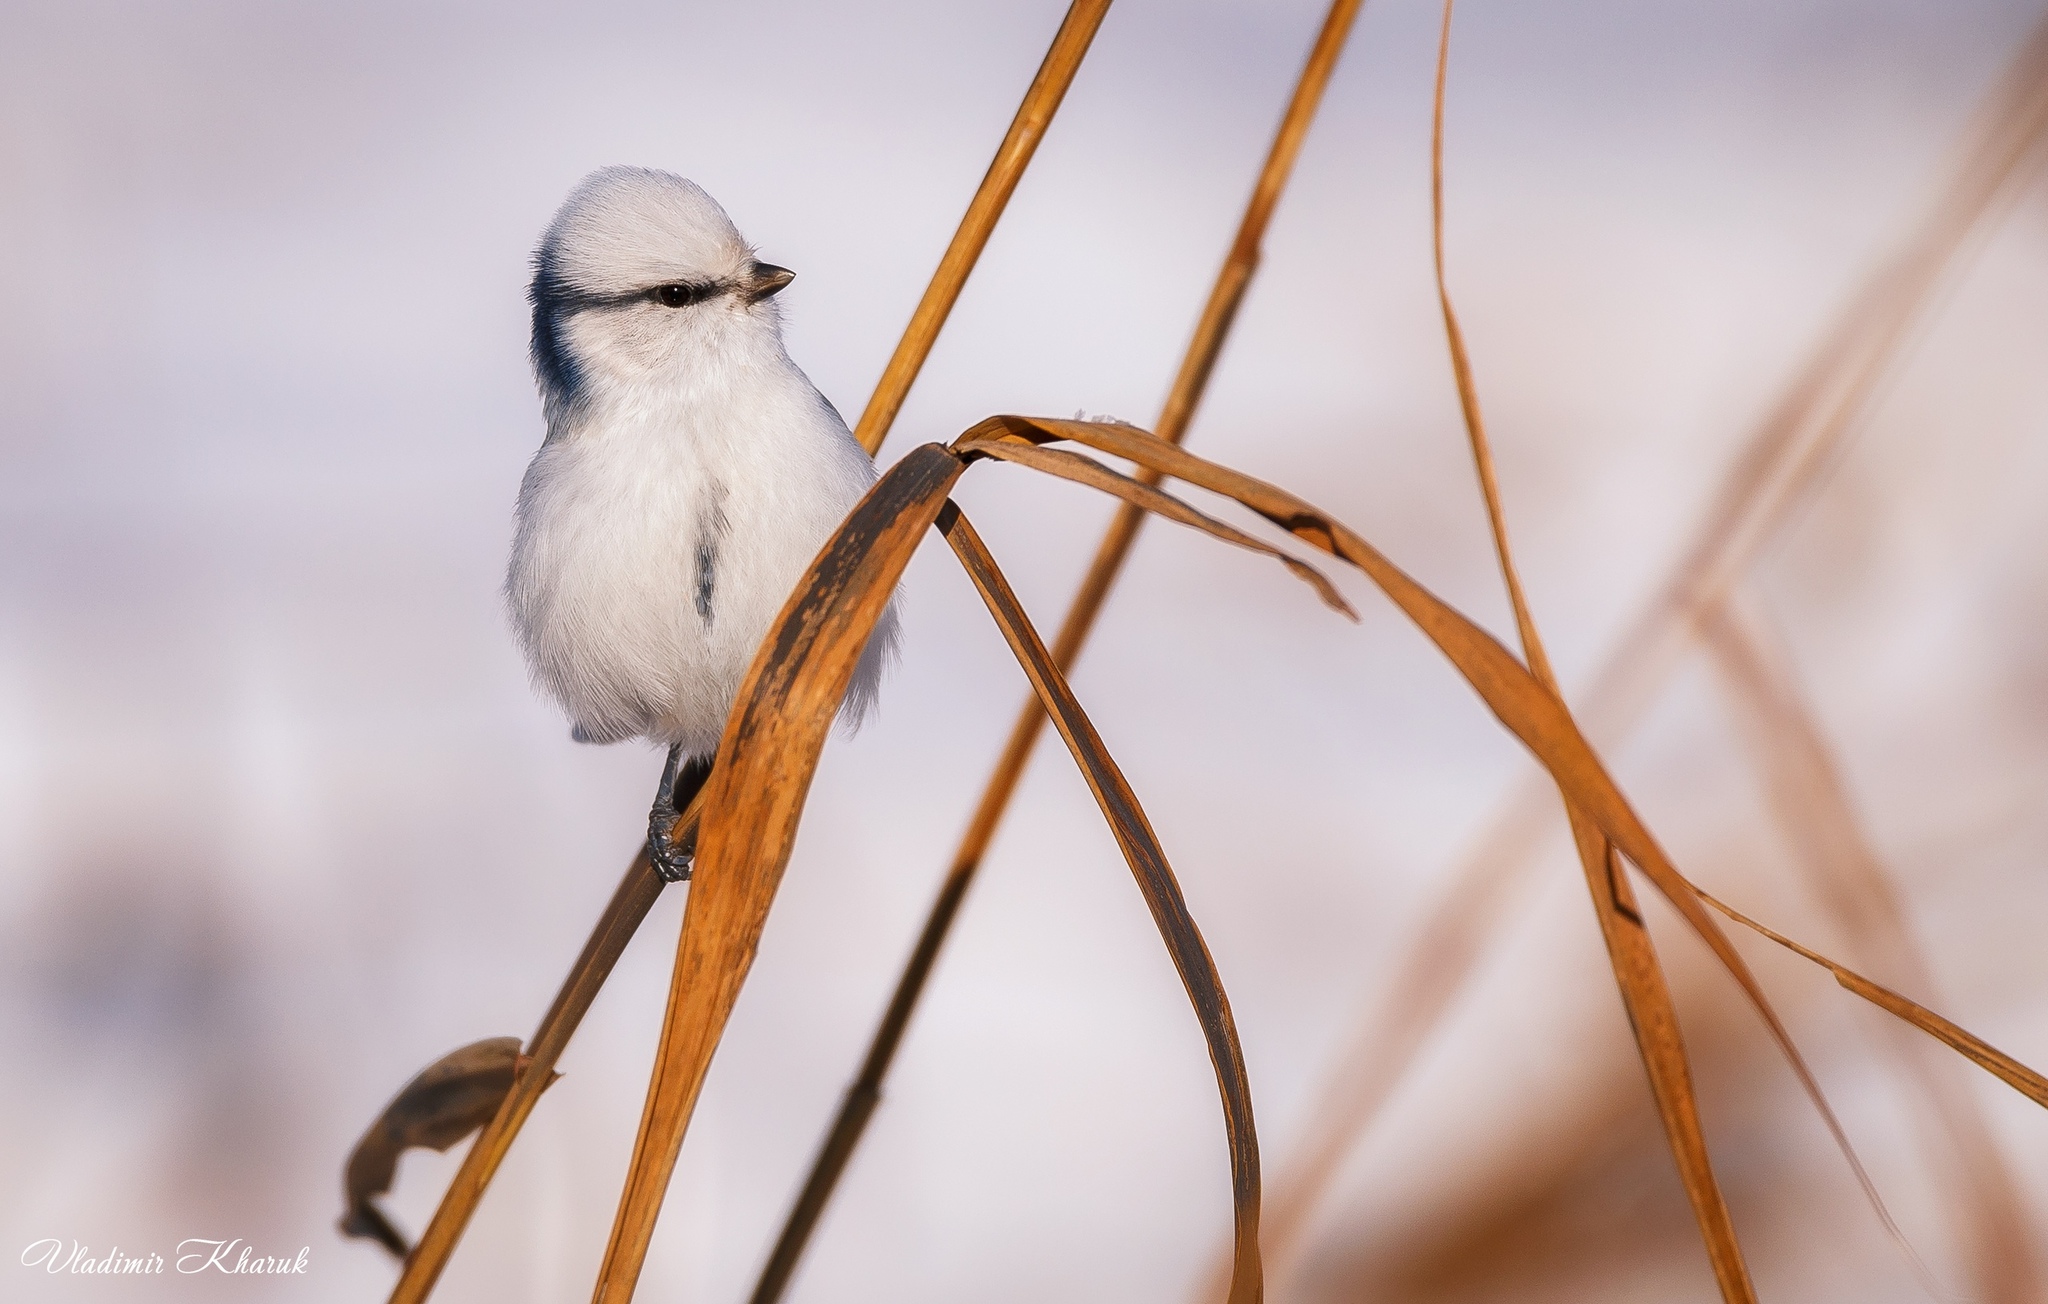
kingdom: Animalia
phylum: Chordata
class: Aves
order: Passeriformes
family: Paridae
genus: Cyanistes
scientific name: Cyanistes cyanus
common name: Azure tit
